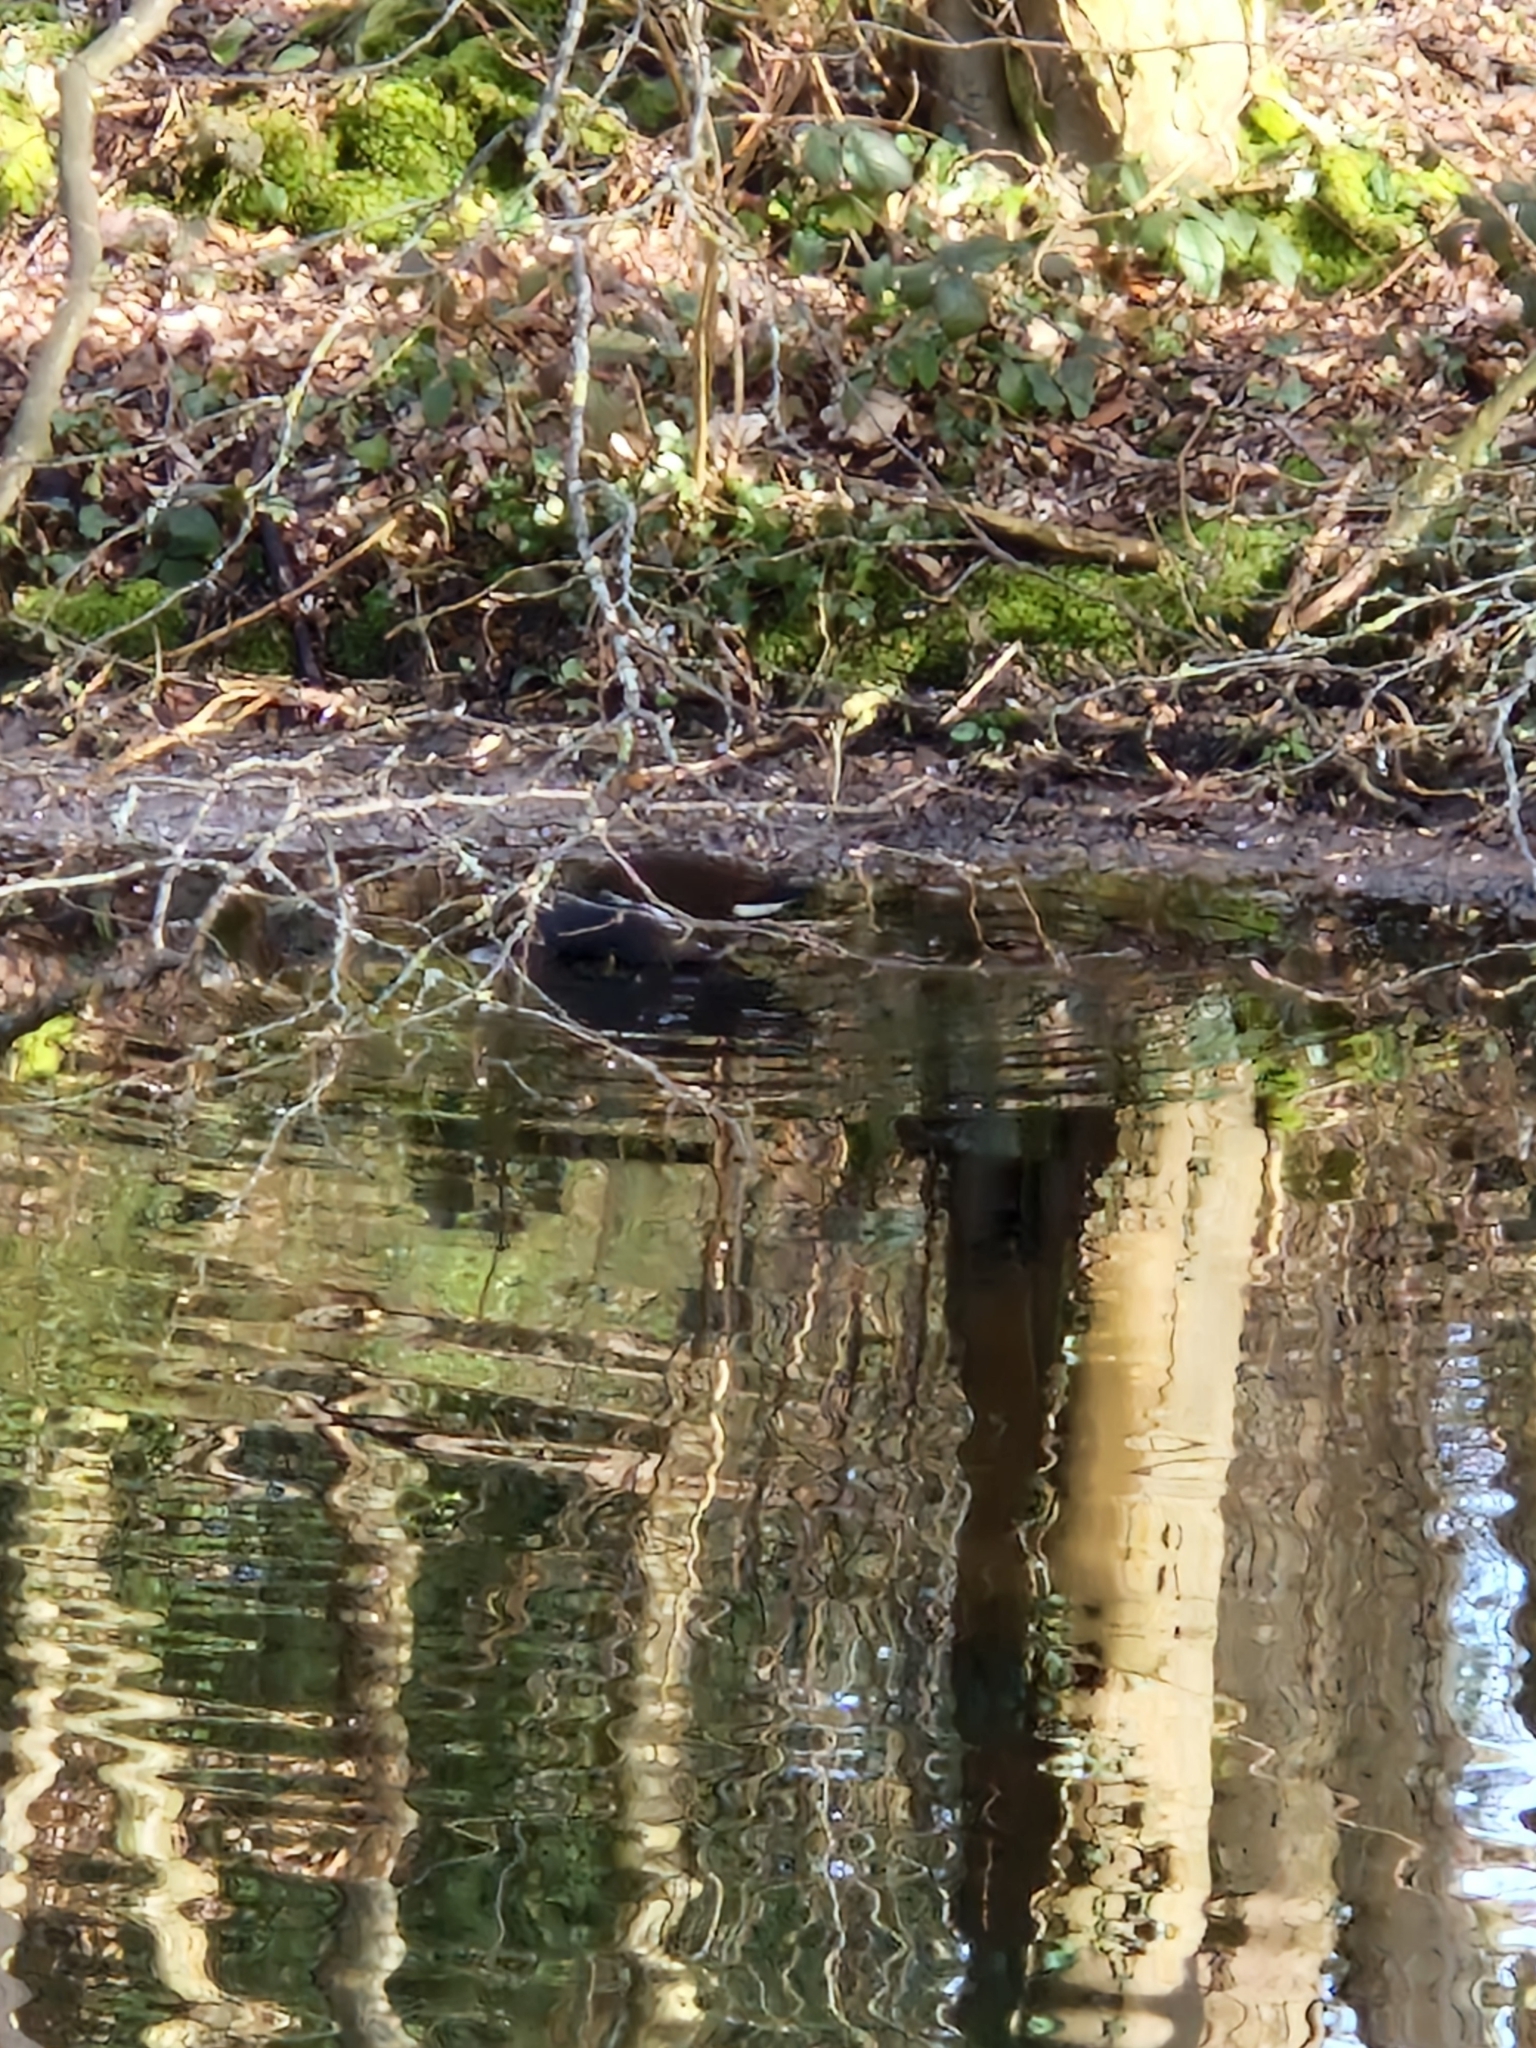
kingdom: Animalia
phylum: Chordata
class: Aves
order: Gruiformes
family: Rallidae
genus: Gallinula
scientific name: Gallinula chloropus
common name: Common moorhen
